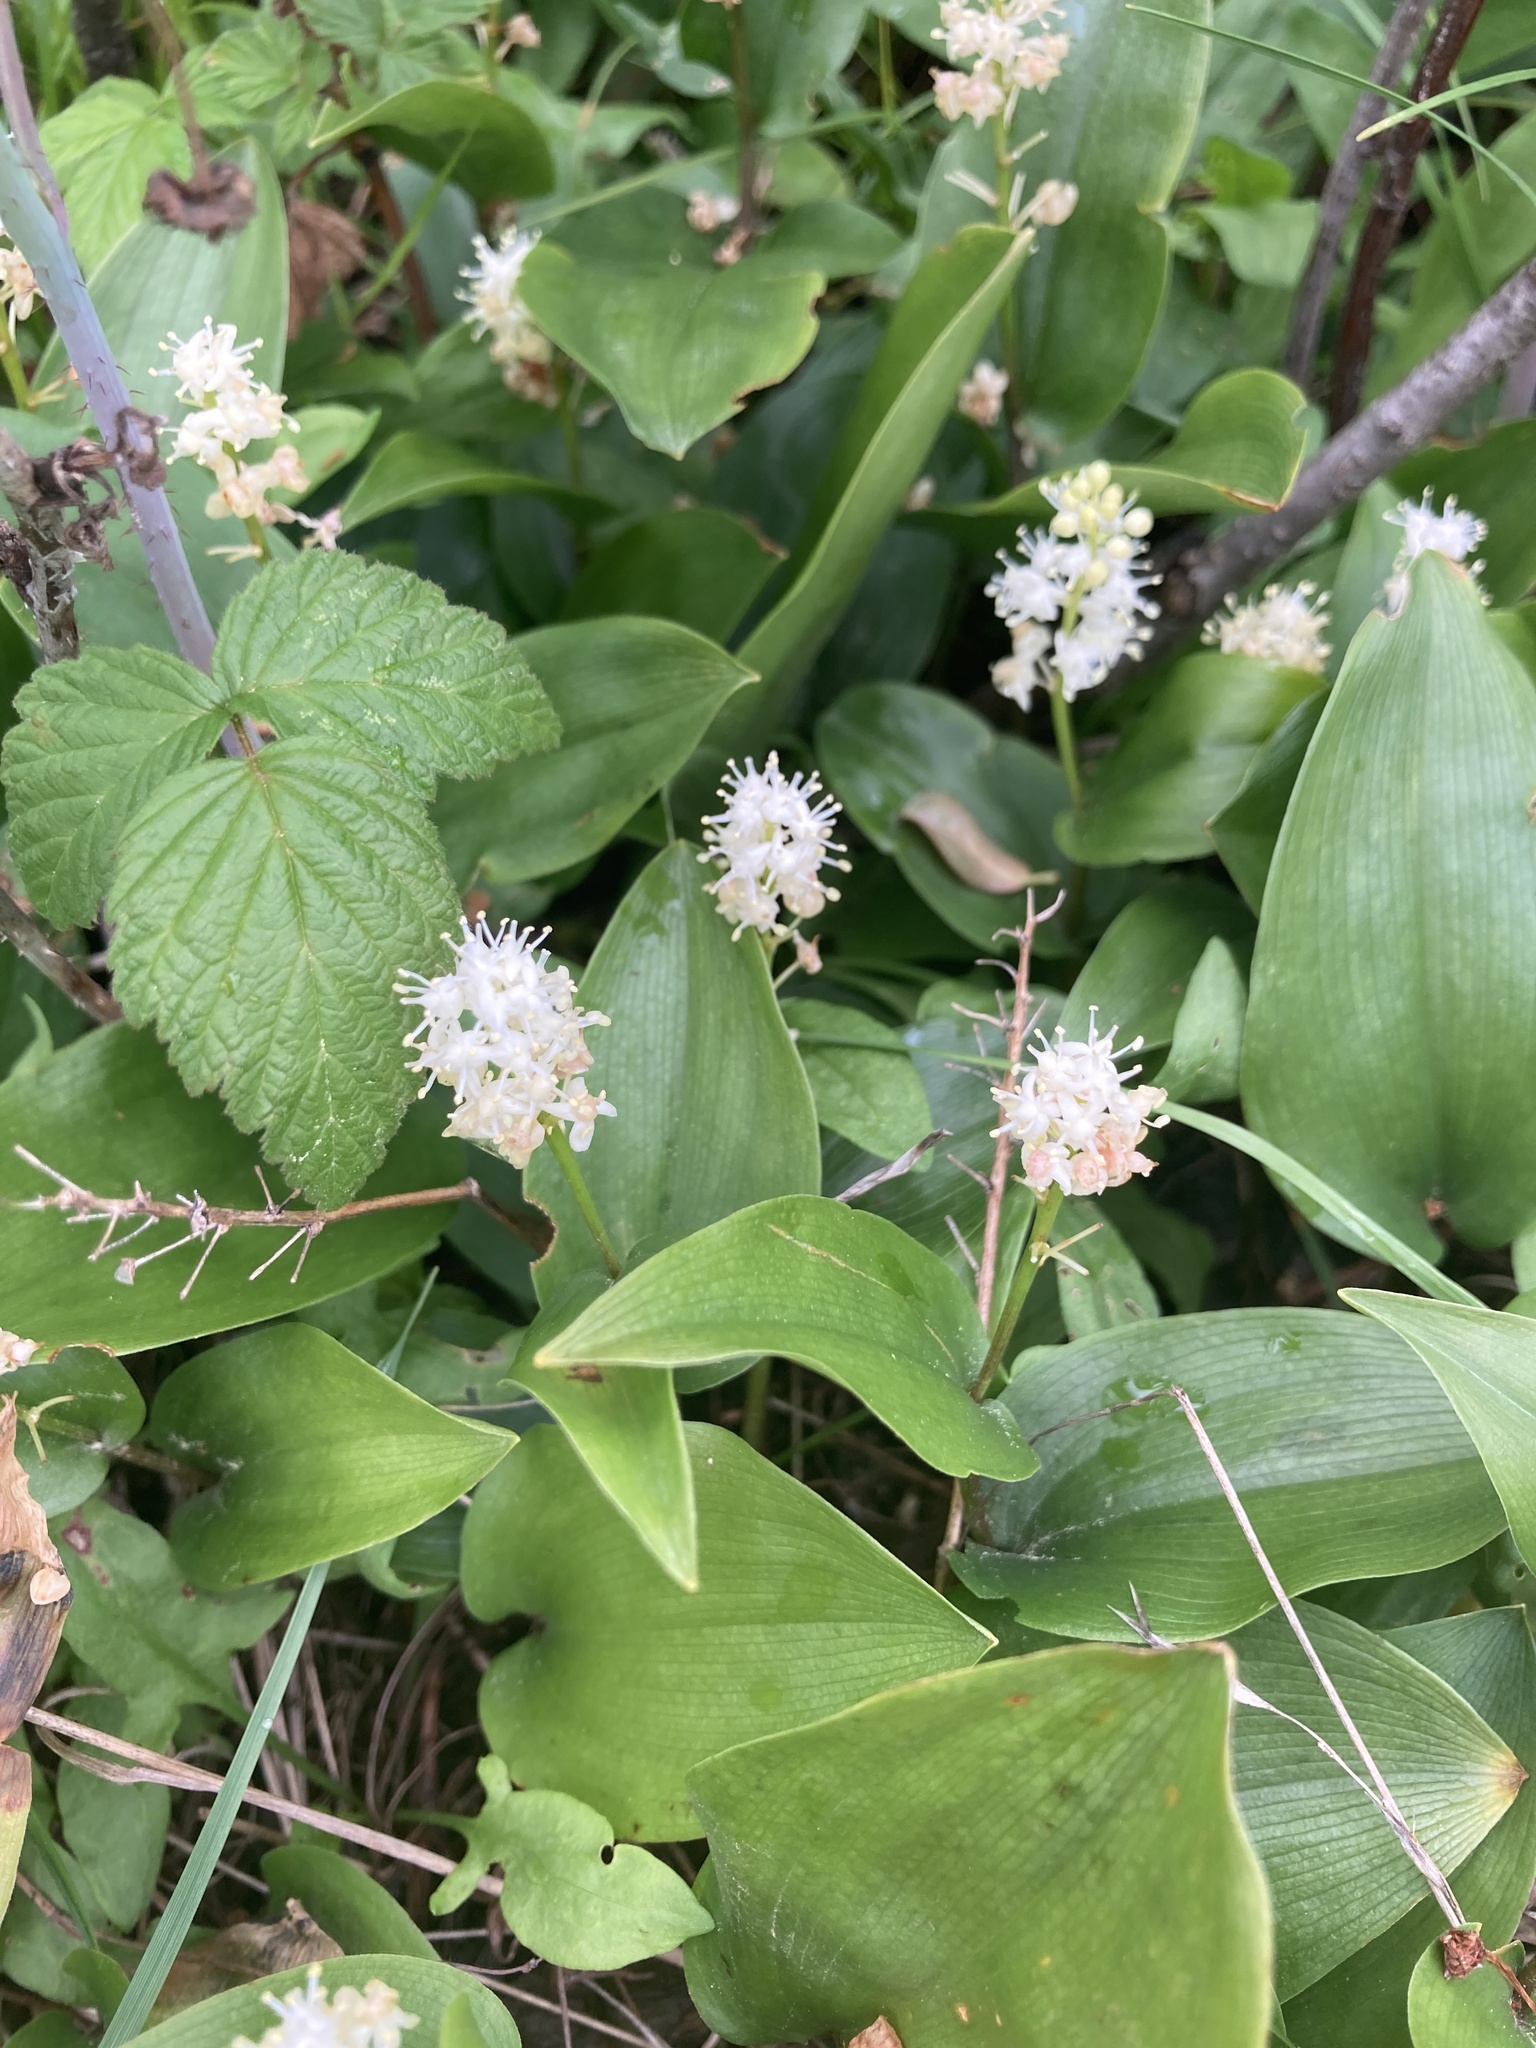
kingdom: Plantae
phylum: Tracheophyta
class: Liliopsida
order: Asparagales
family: Asparagaceae
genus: Maianthemum
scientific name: Maianthemum canadense
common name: False lily-of-the-valley
